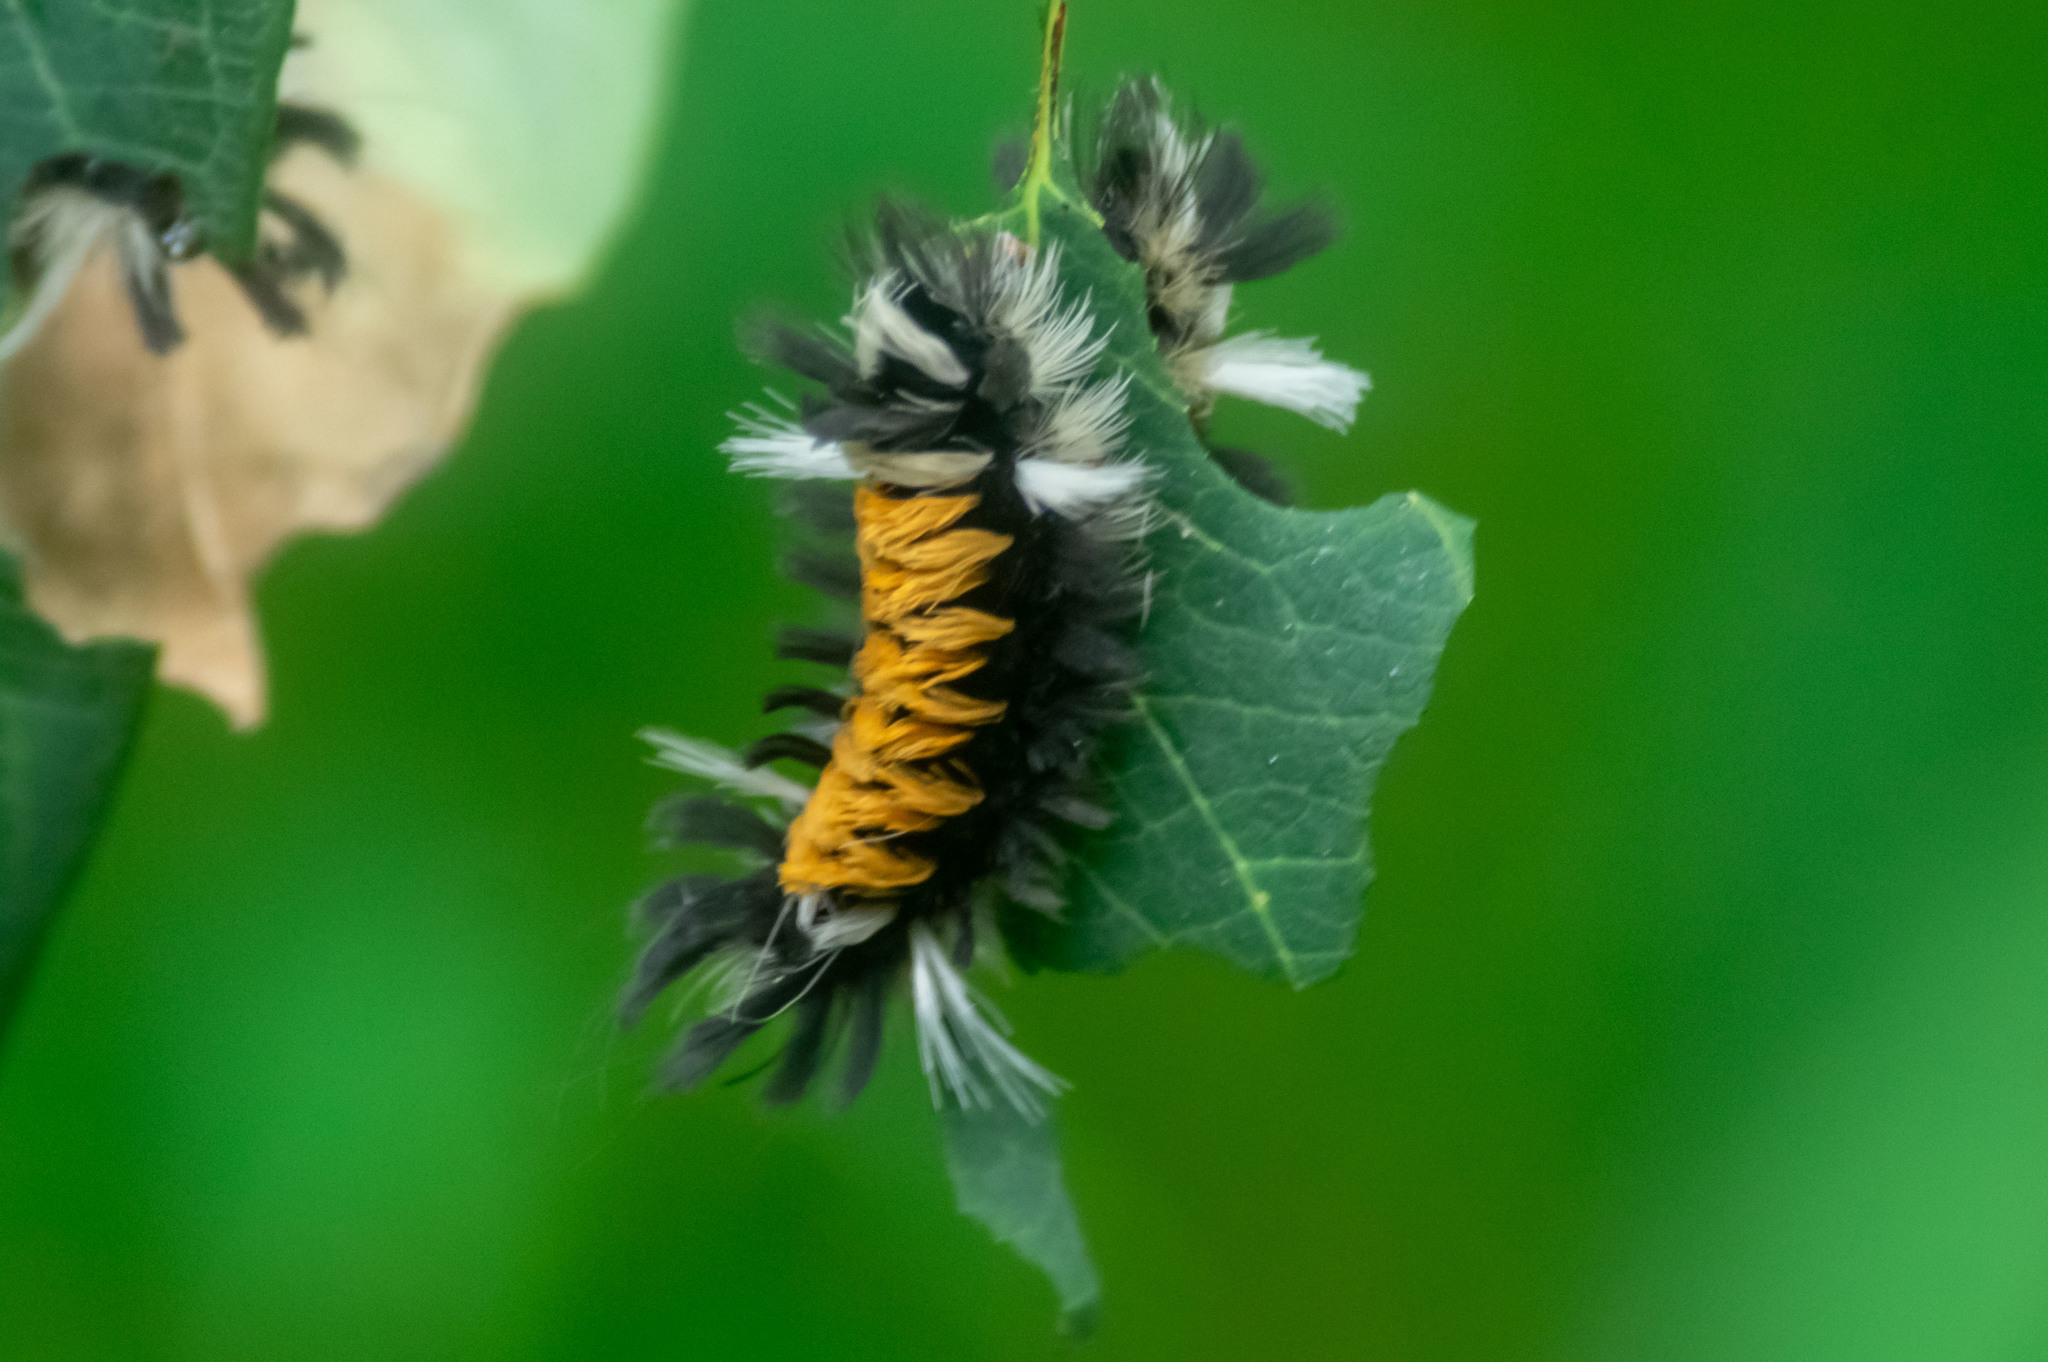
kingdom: Animalia
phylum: Arthropoda
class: Insecta
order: Lepidoptera
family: Erebidae
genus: Euchaetes
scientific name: Euchaetes egle
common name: Milkweed tussock moth
